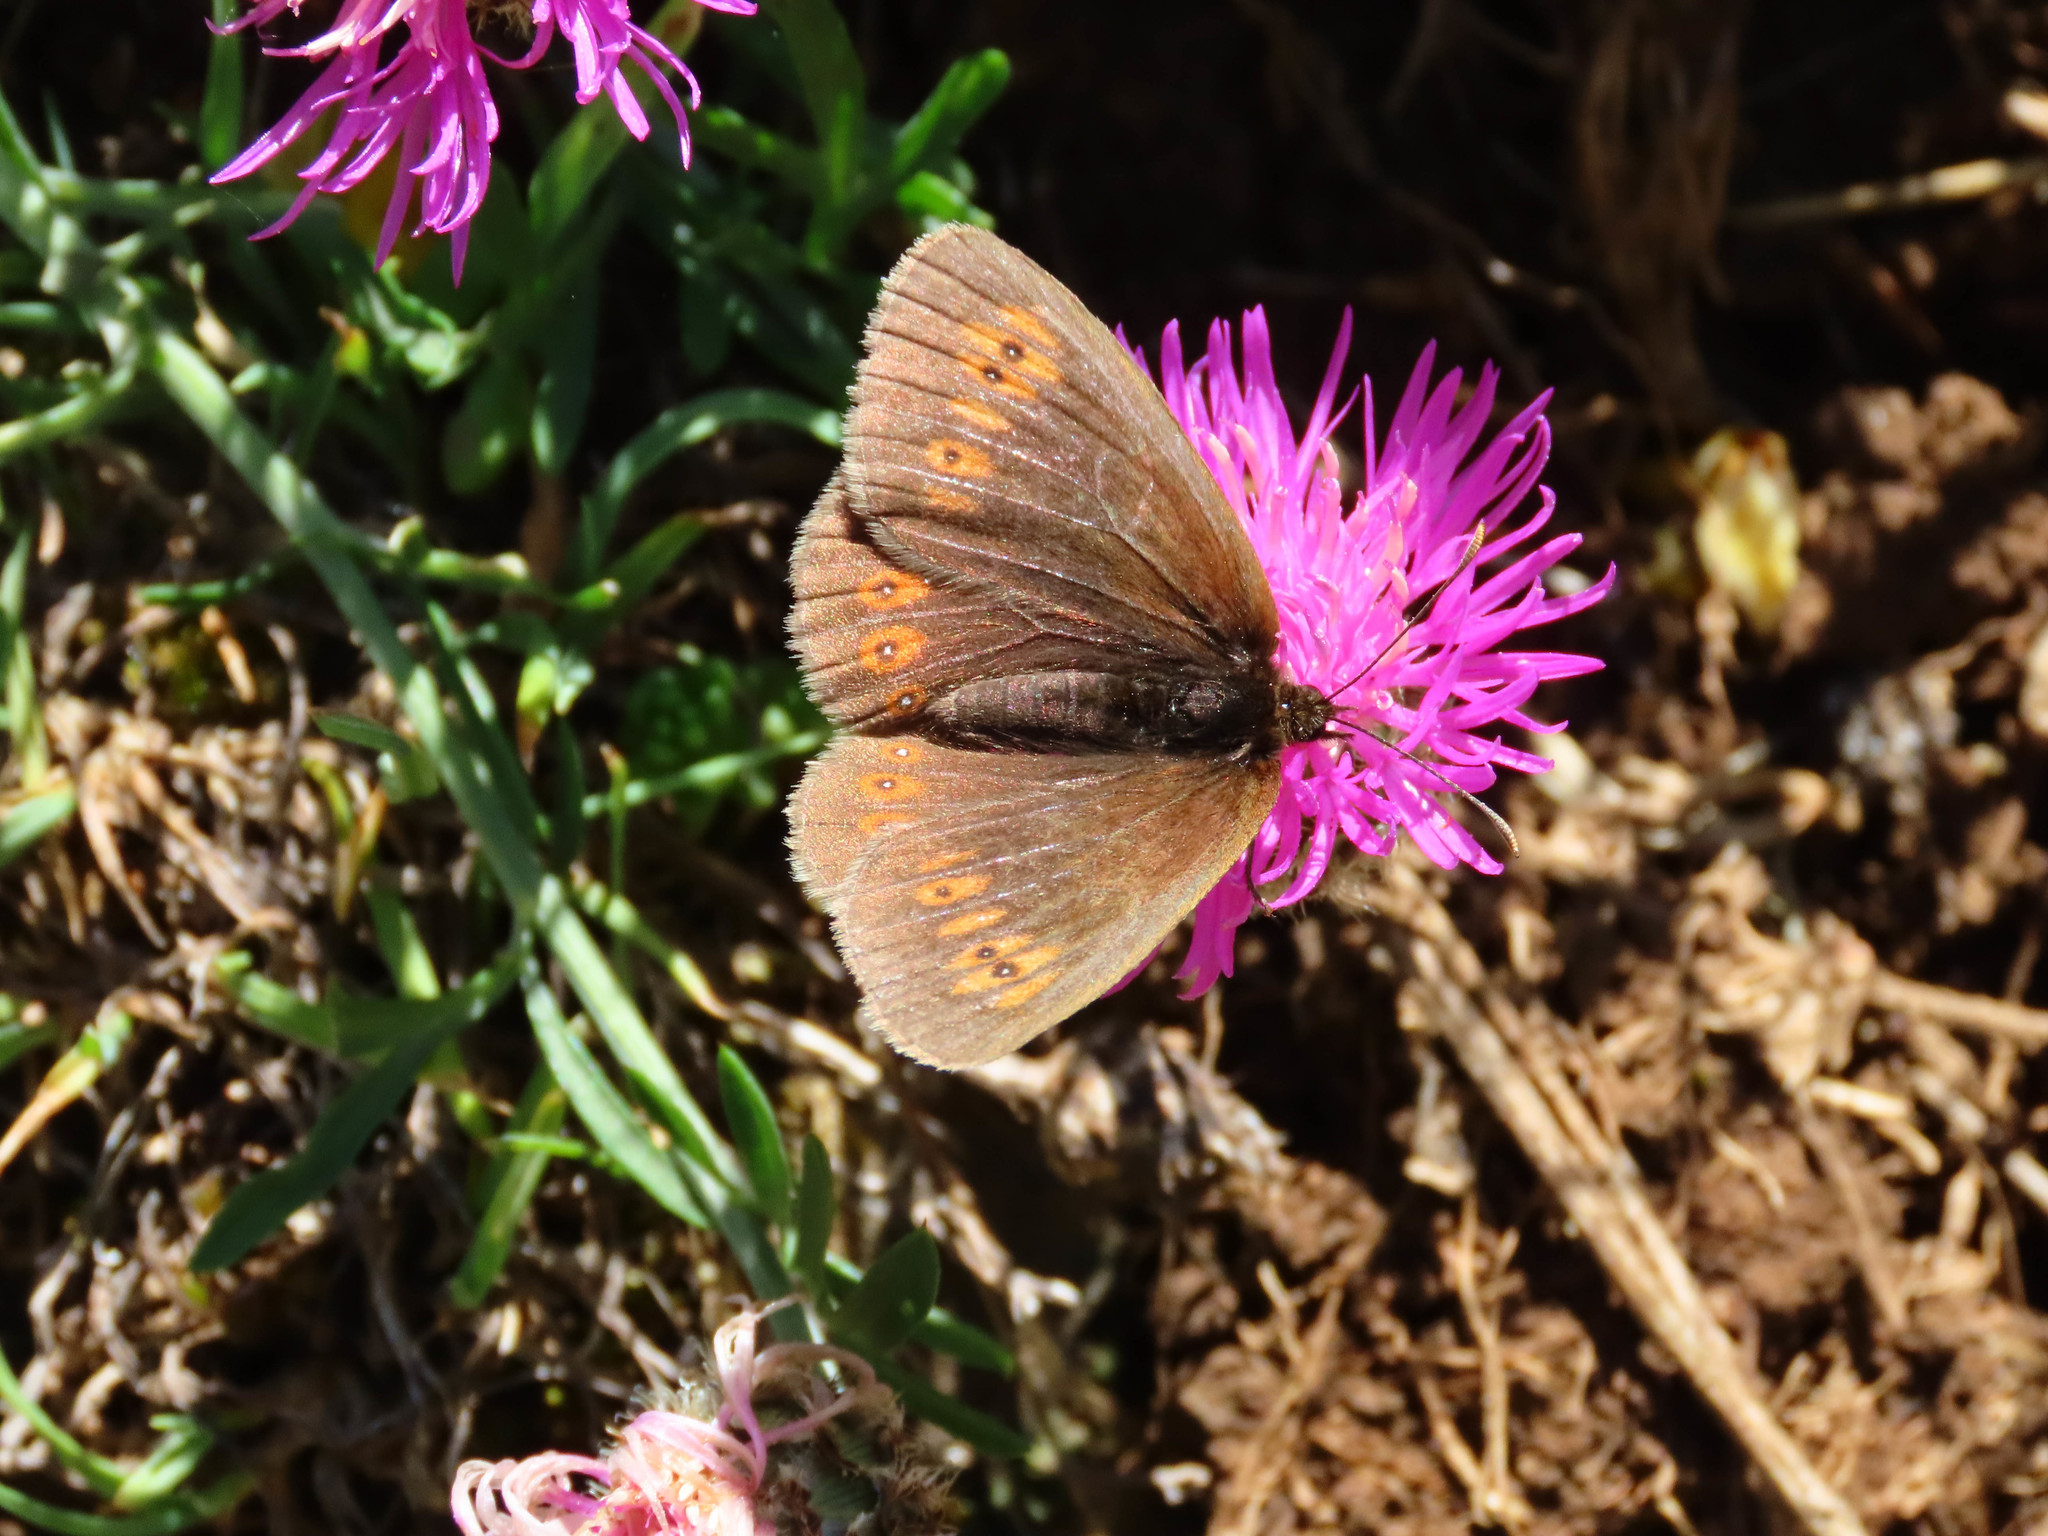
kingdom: Animalia
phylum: Arthropoda
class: Insecta
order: Lepidoptera
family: Nymphalidae
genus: Erebia
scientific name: Erebia alberganus
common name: Almond-eyed ringlet
